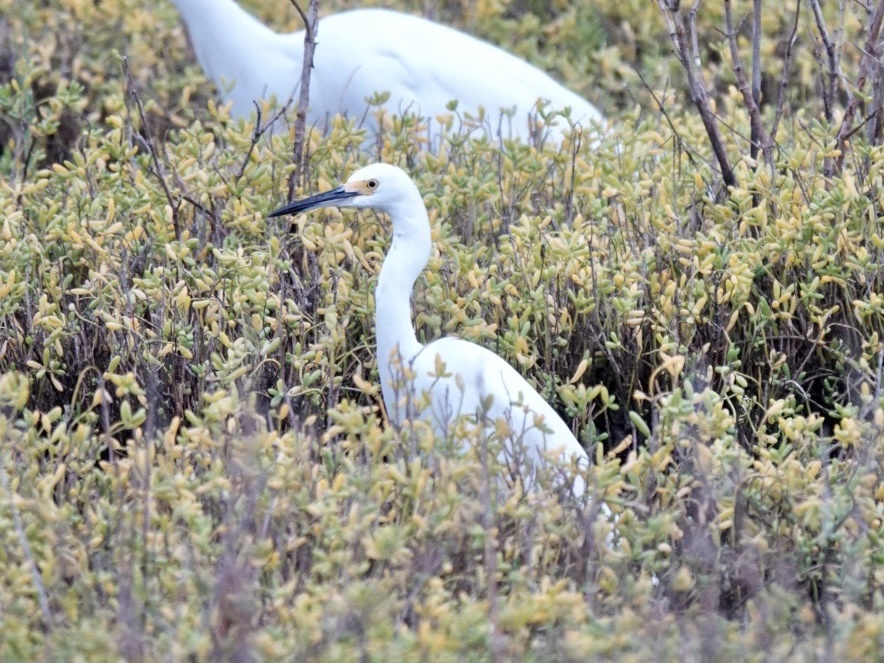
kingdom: Animalia
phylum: Chordata
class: Aves
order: Pelecaniformes
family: Ardeidae
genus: Egretta
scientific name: Egretta thula
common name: Snowy egret
